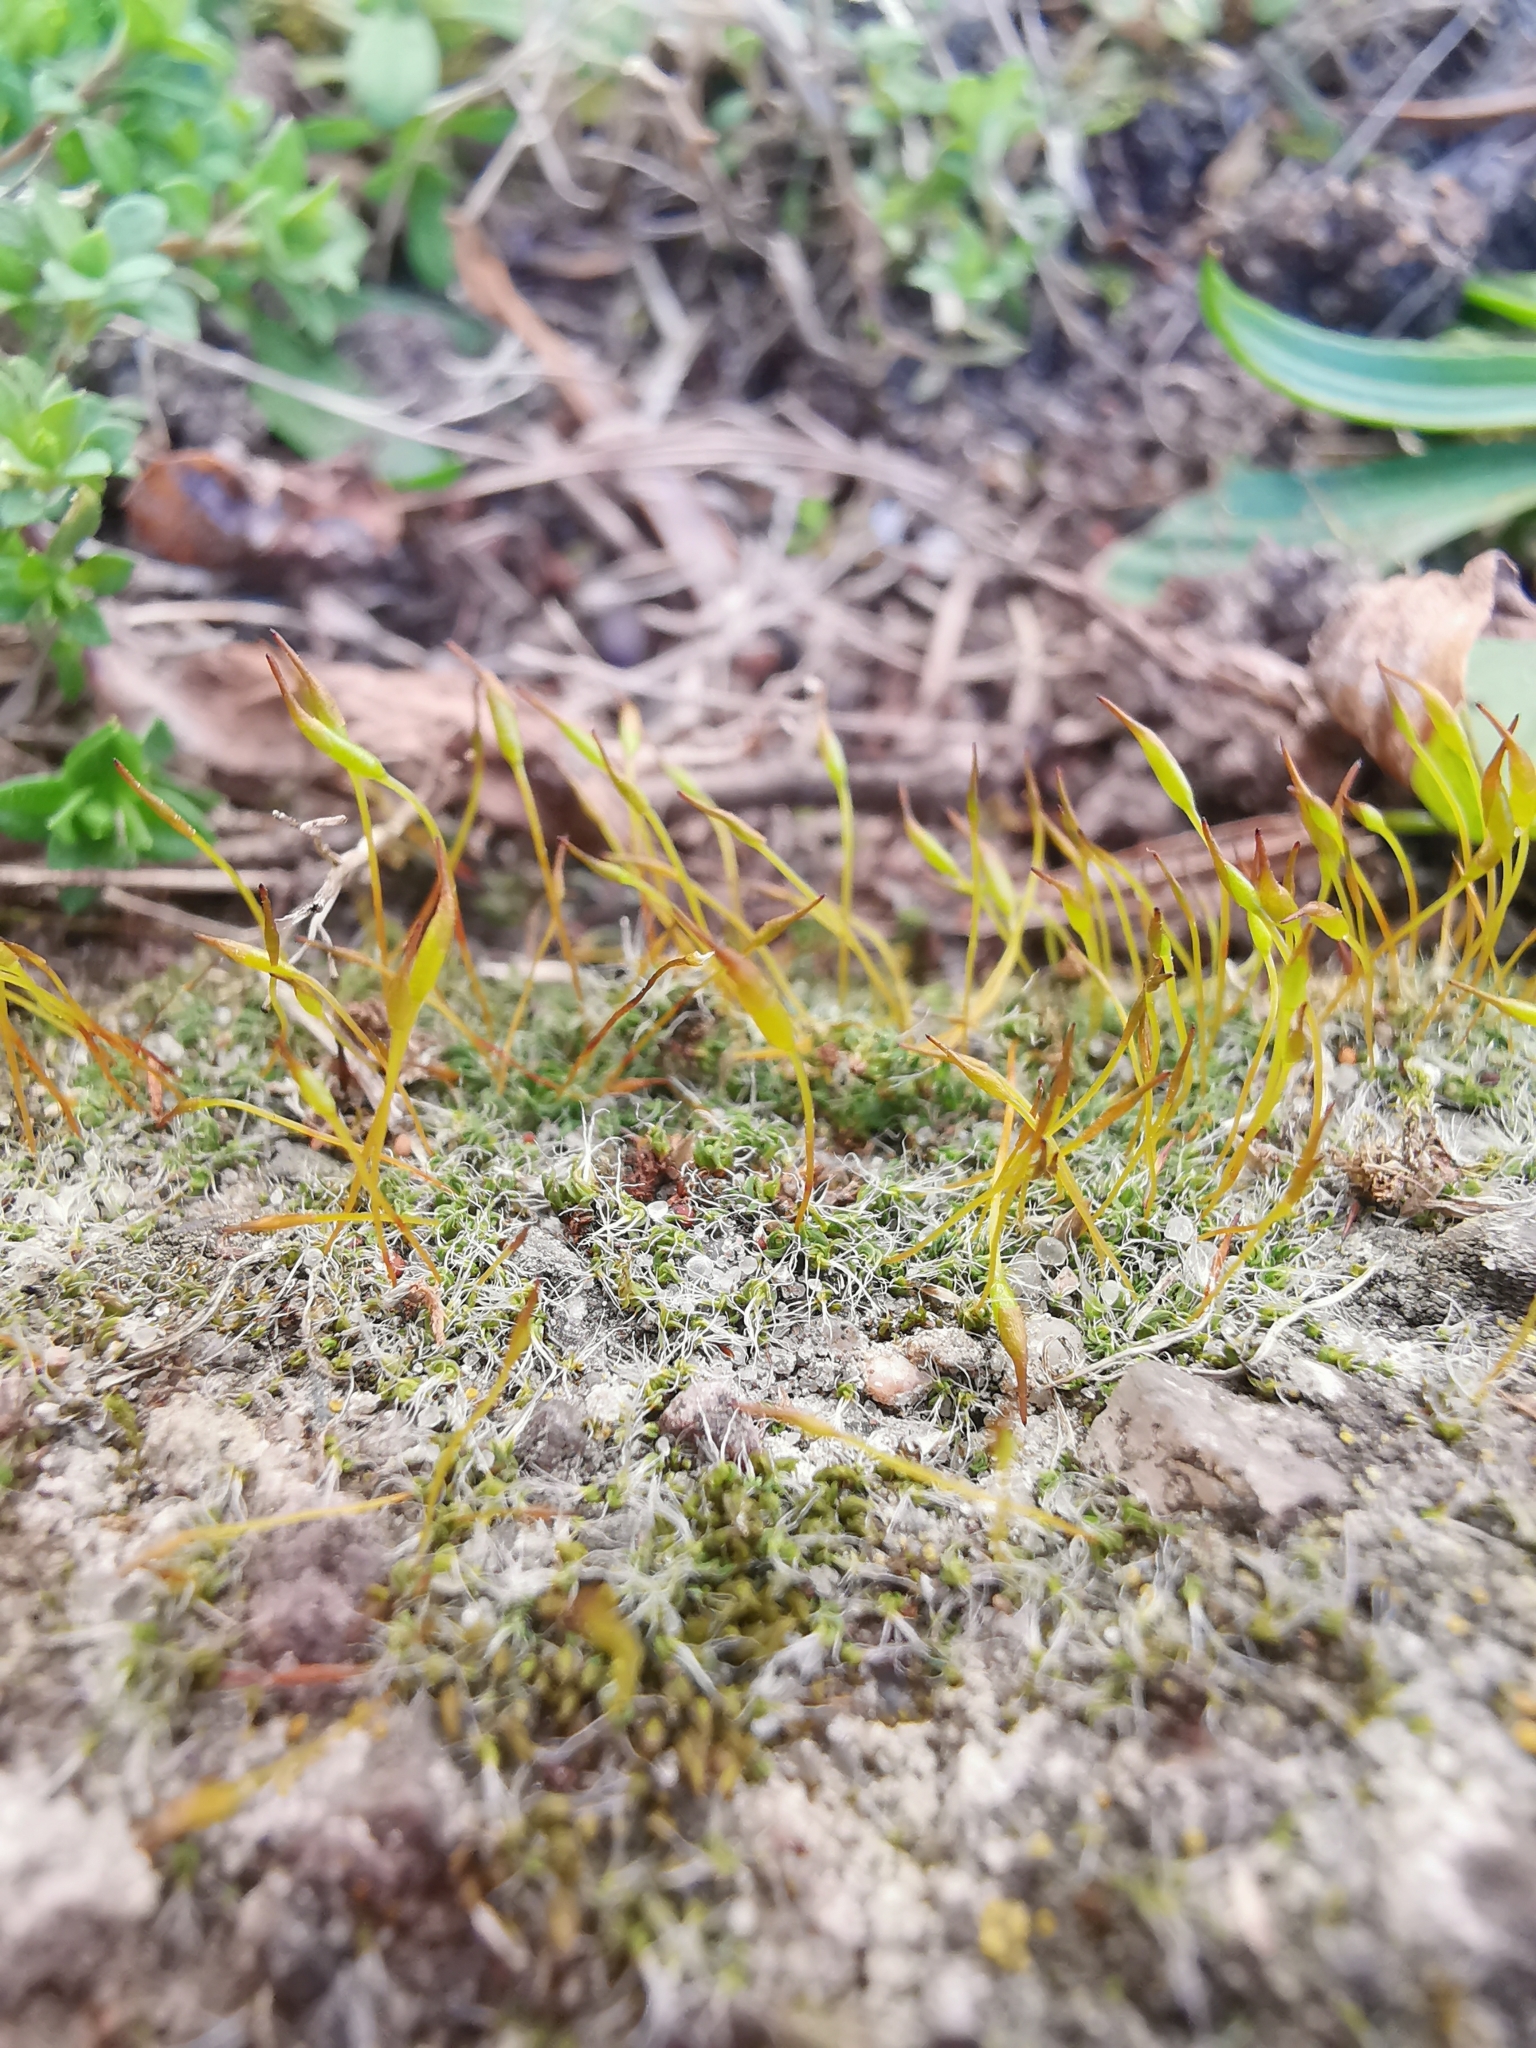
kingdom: Plantae
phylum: Bryophyta
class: Bryopsida
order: Pottiales
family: Pottiaceae
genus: Tortula
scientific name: Tortula muralis
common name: Wall screw-moss
